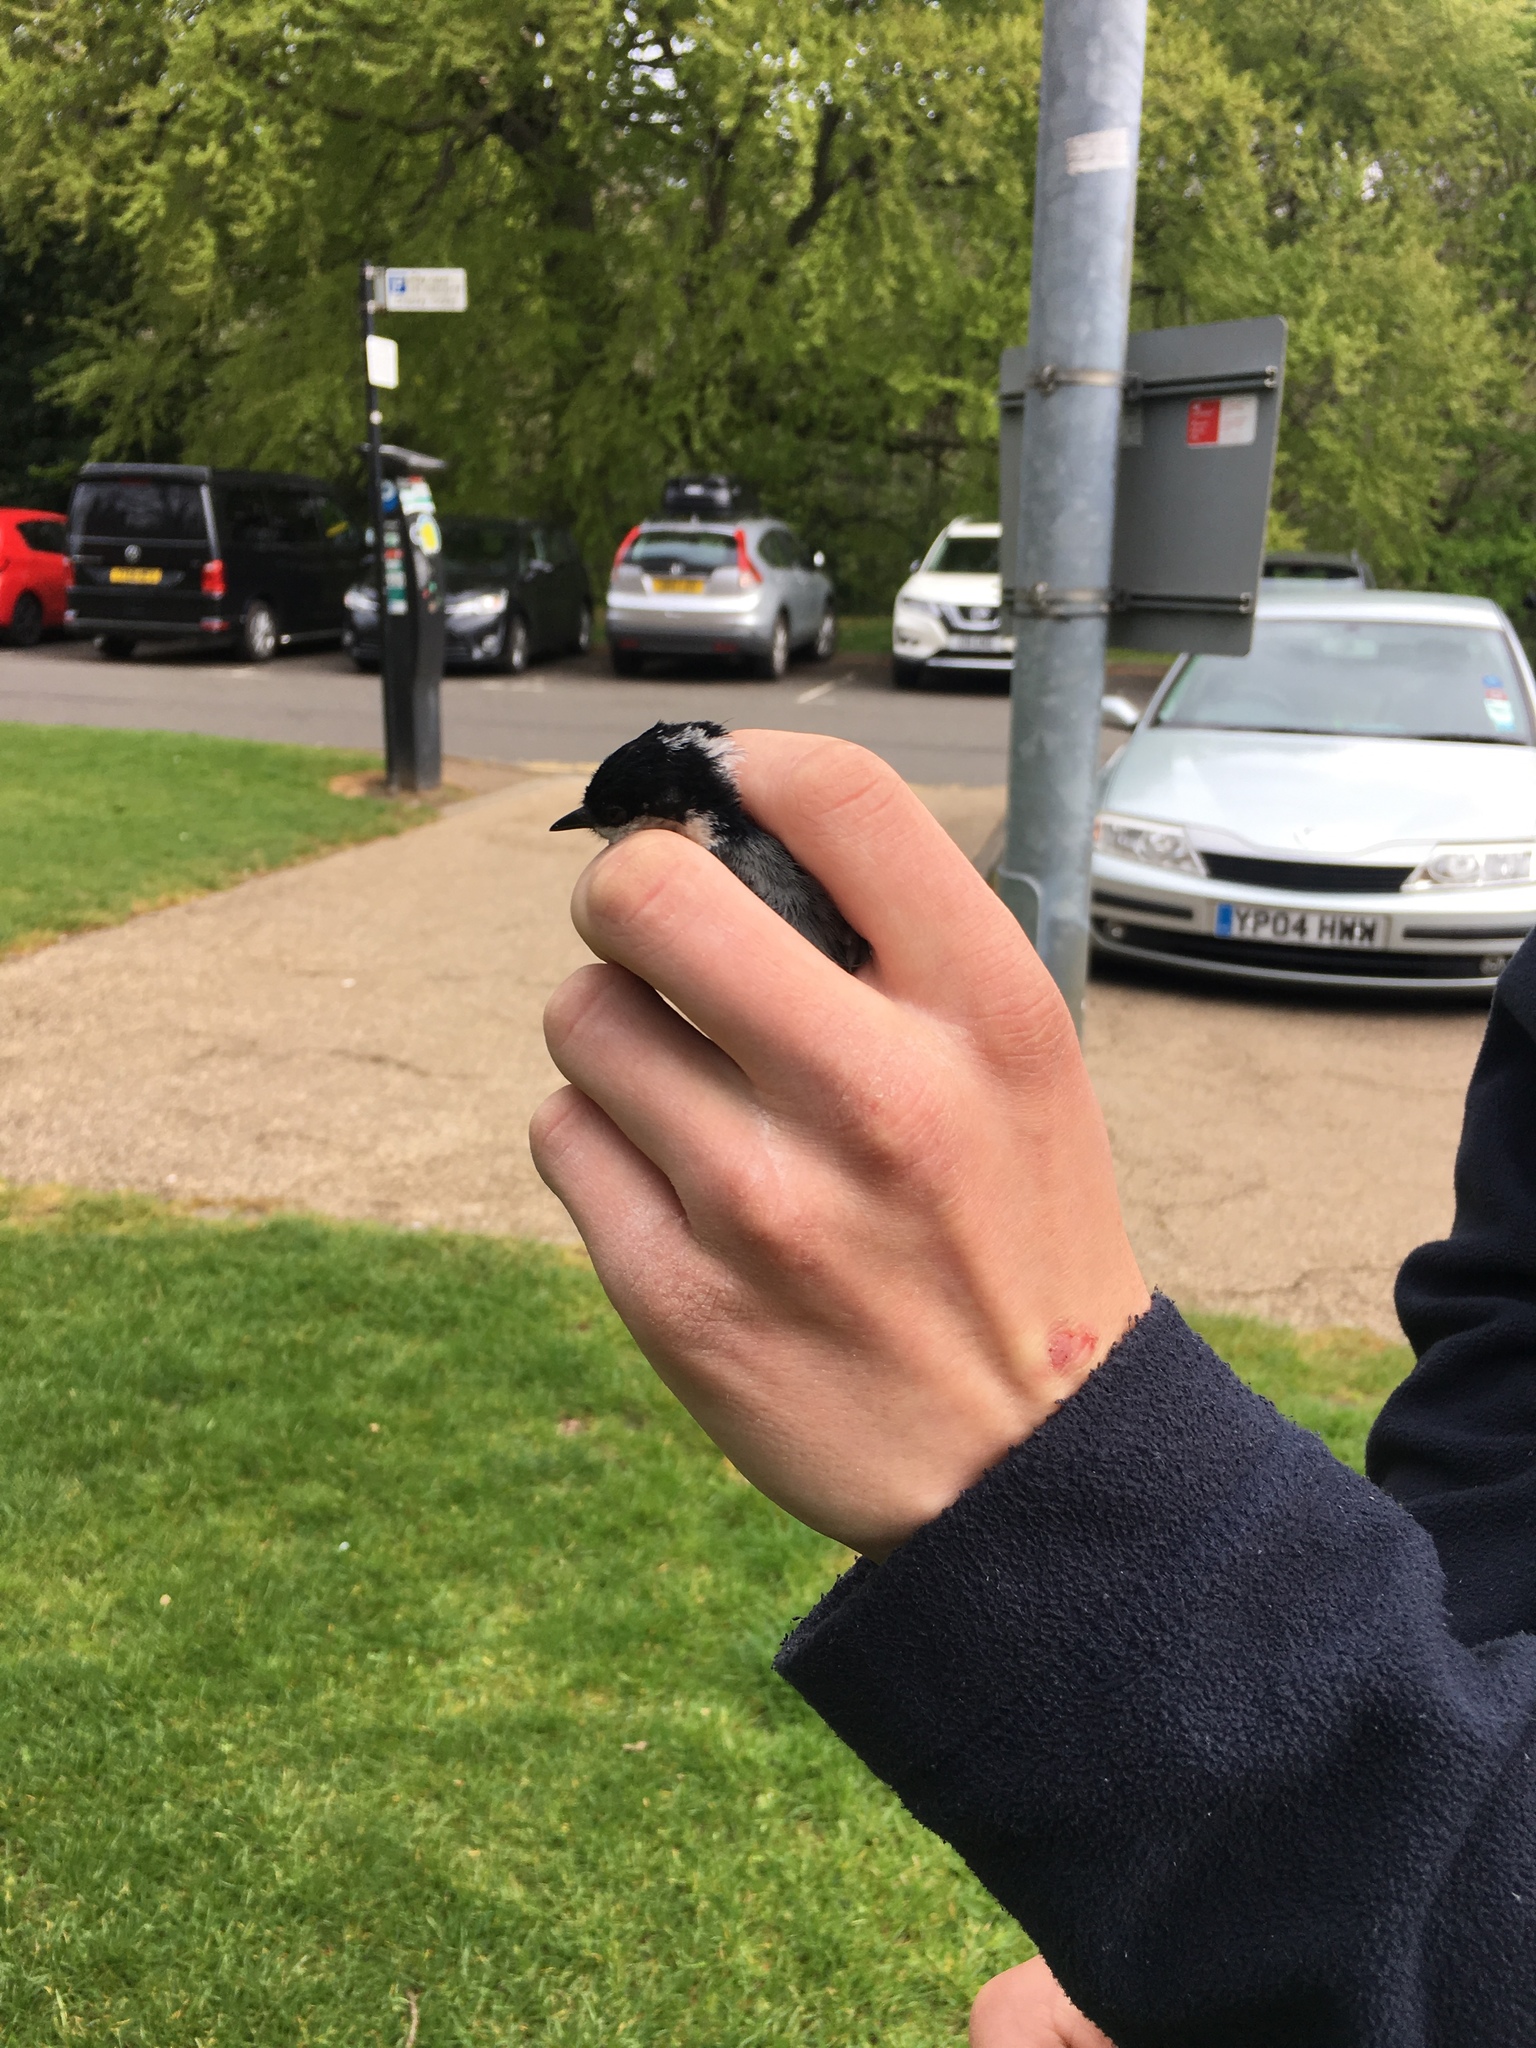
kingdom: Animalia
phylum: Chordata
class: Aves
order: Passeriformes
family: Paridae
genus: Periparus
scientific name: Periparus ater
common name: Coal tit
